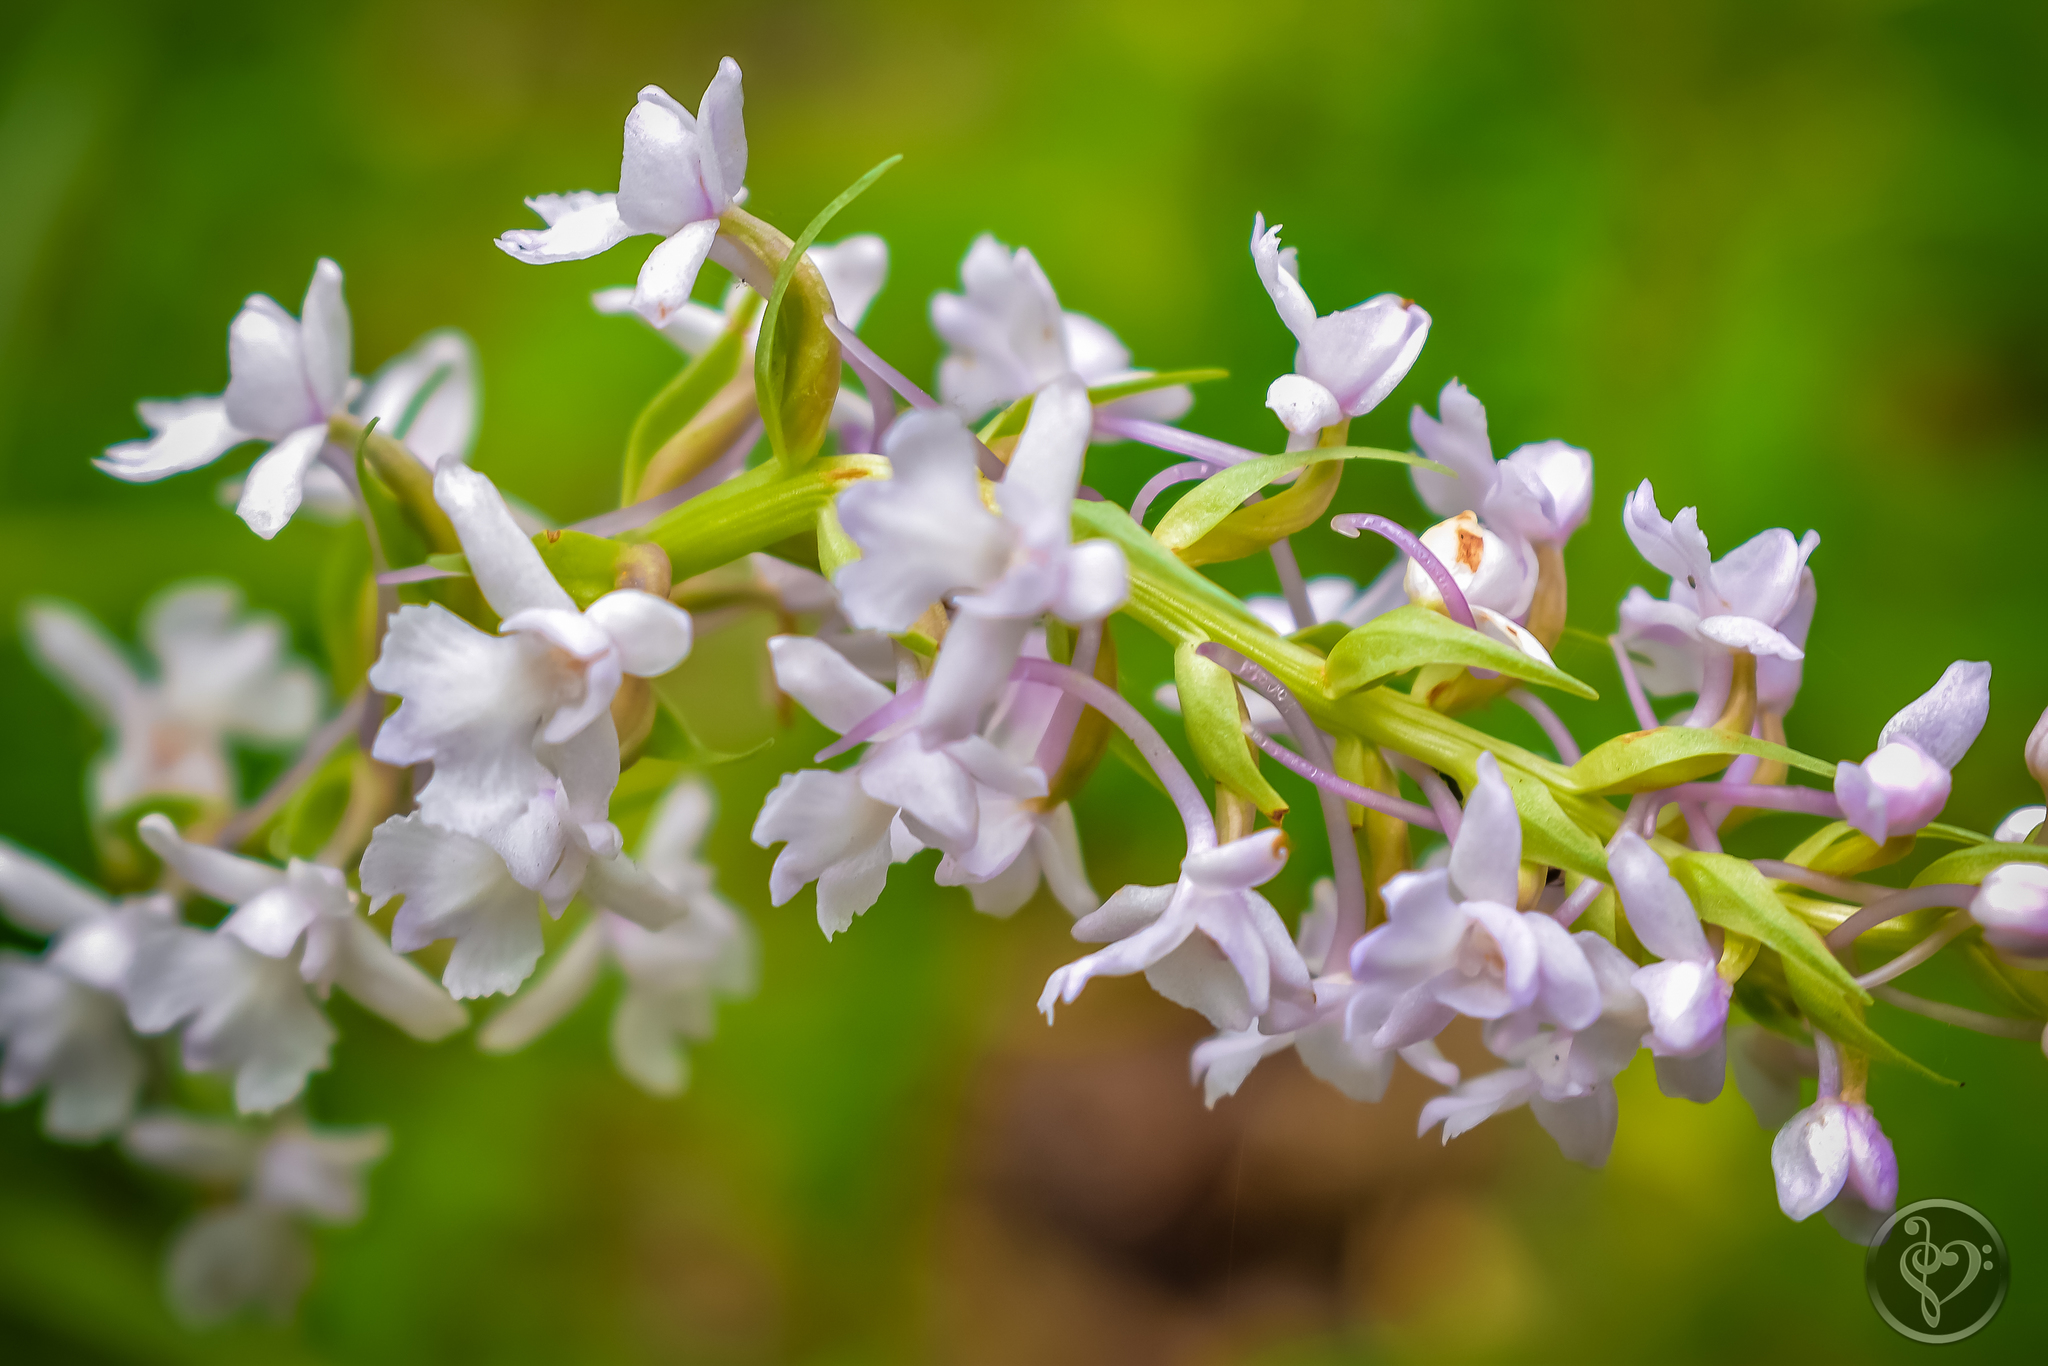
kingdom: Plantae
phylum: Tracheophyta
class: Liliopsida
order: Asparagales
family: Orchidaceae
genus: Gymnadenia
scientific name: Gymnadenia conopsea
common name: Fragrant orchid
